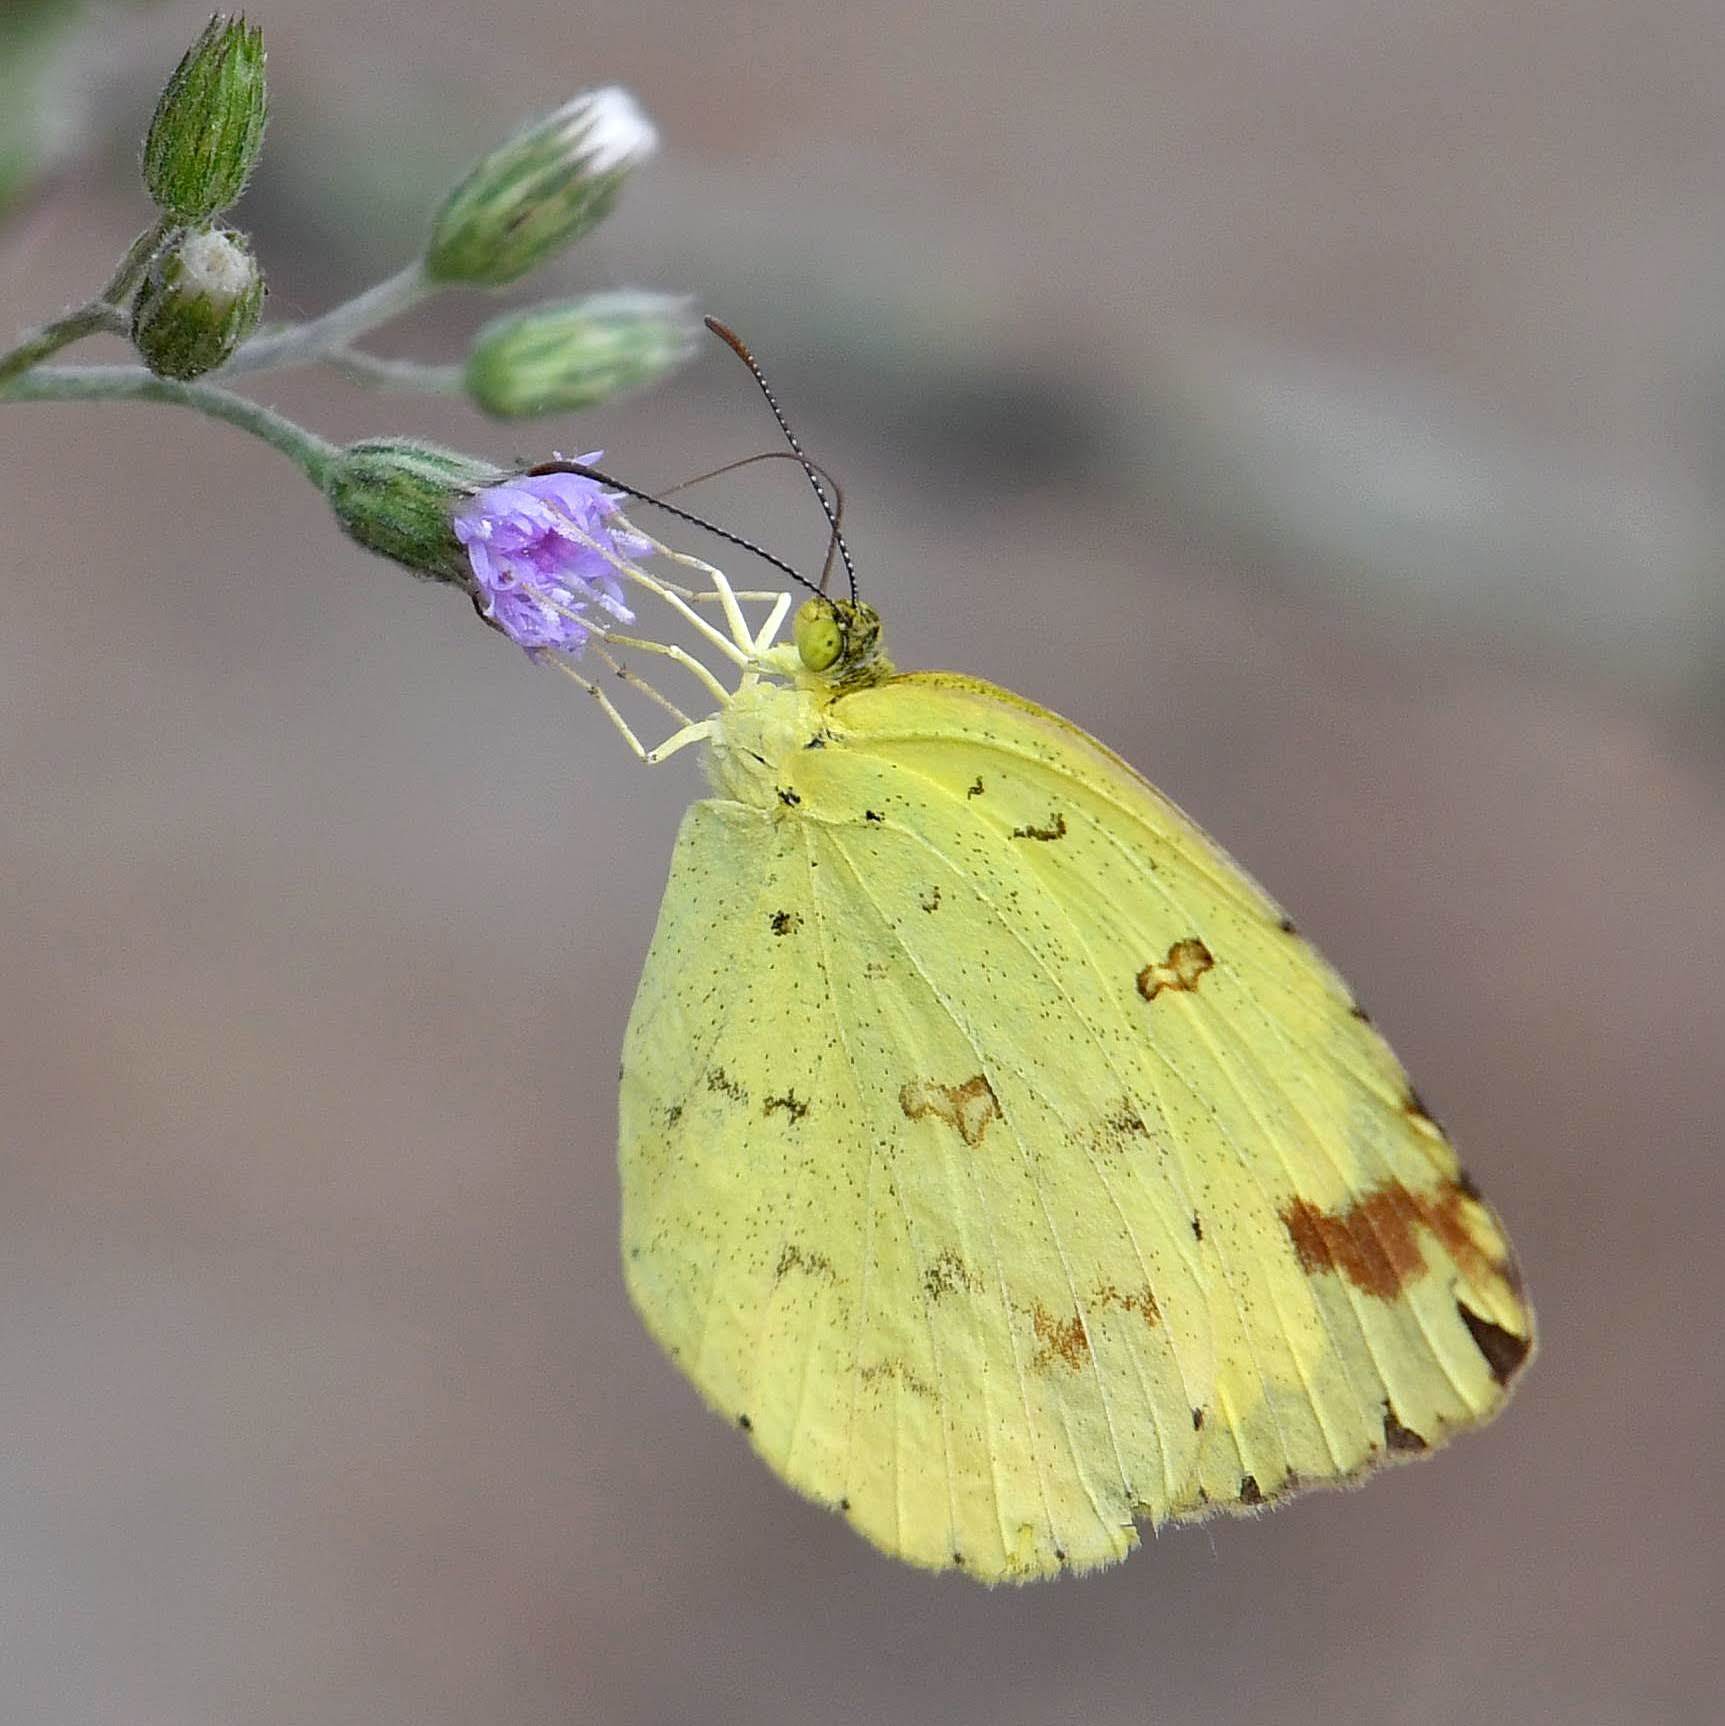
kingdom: Animalia
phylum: Arthropoda
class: Insecta
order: Lepidoptera
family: Pieridae
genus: Eurema
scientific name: Eurema hecabe
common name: Pale grass yellow
